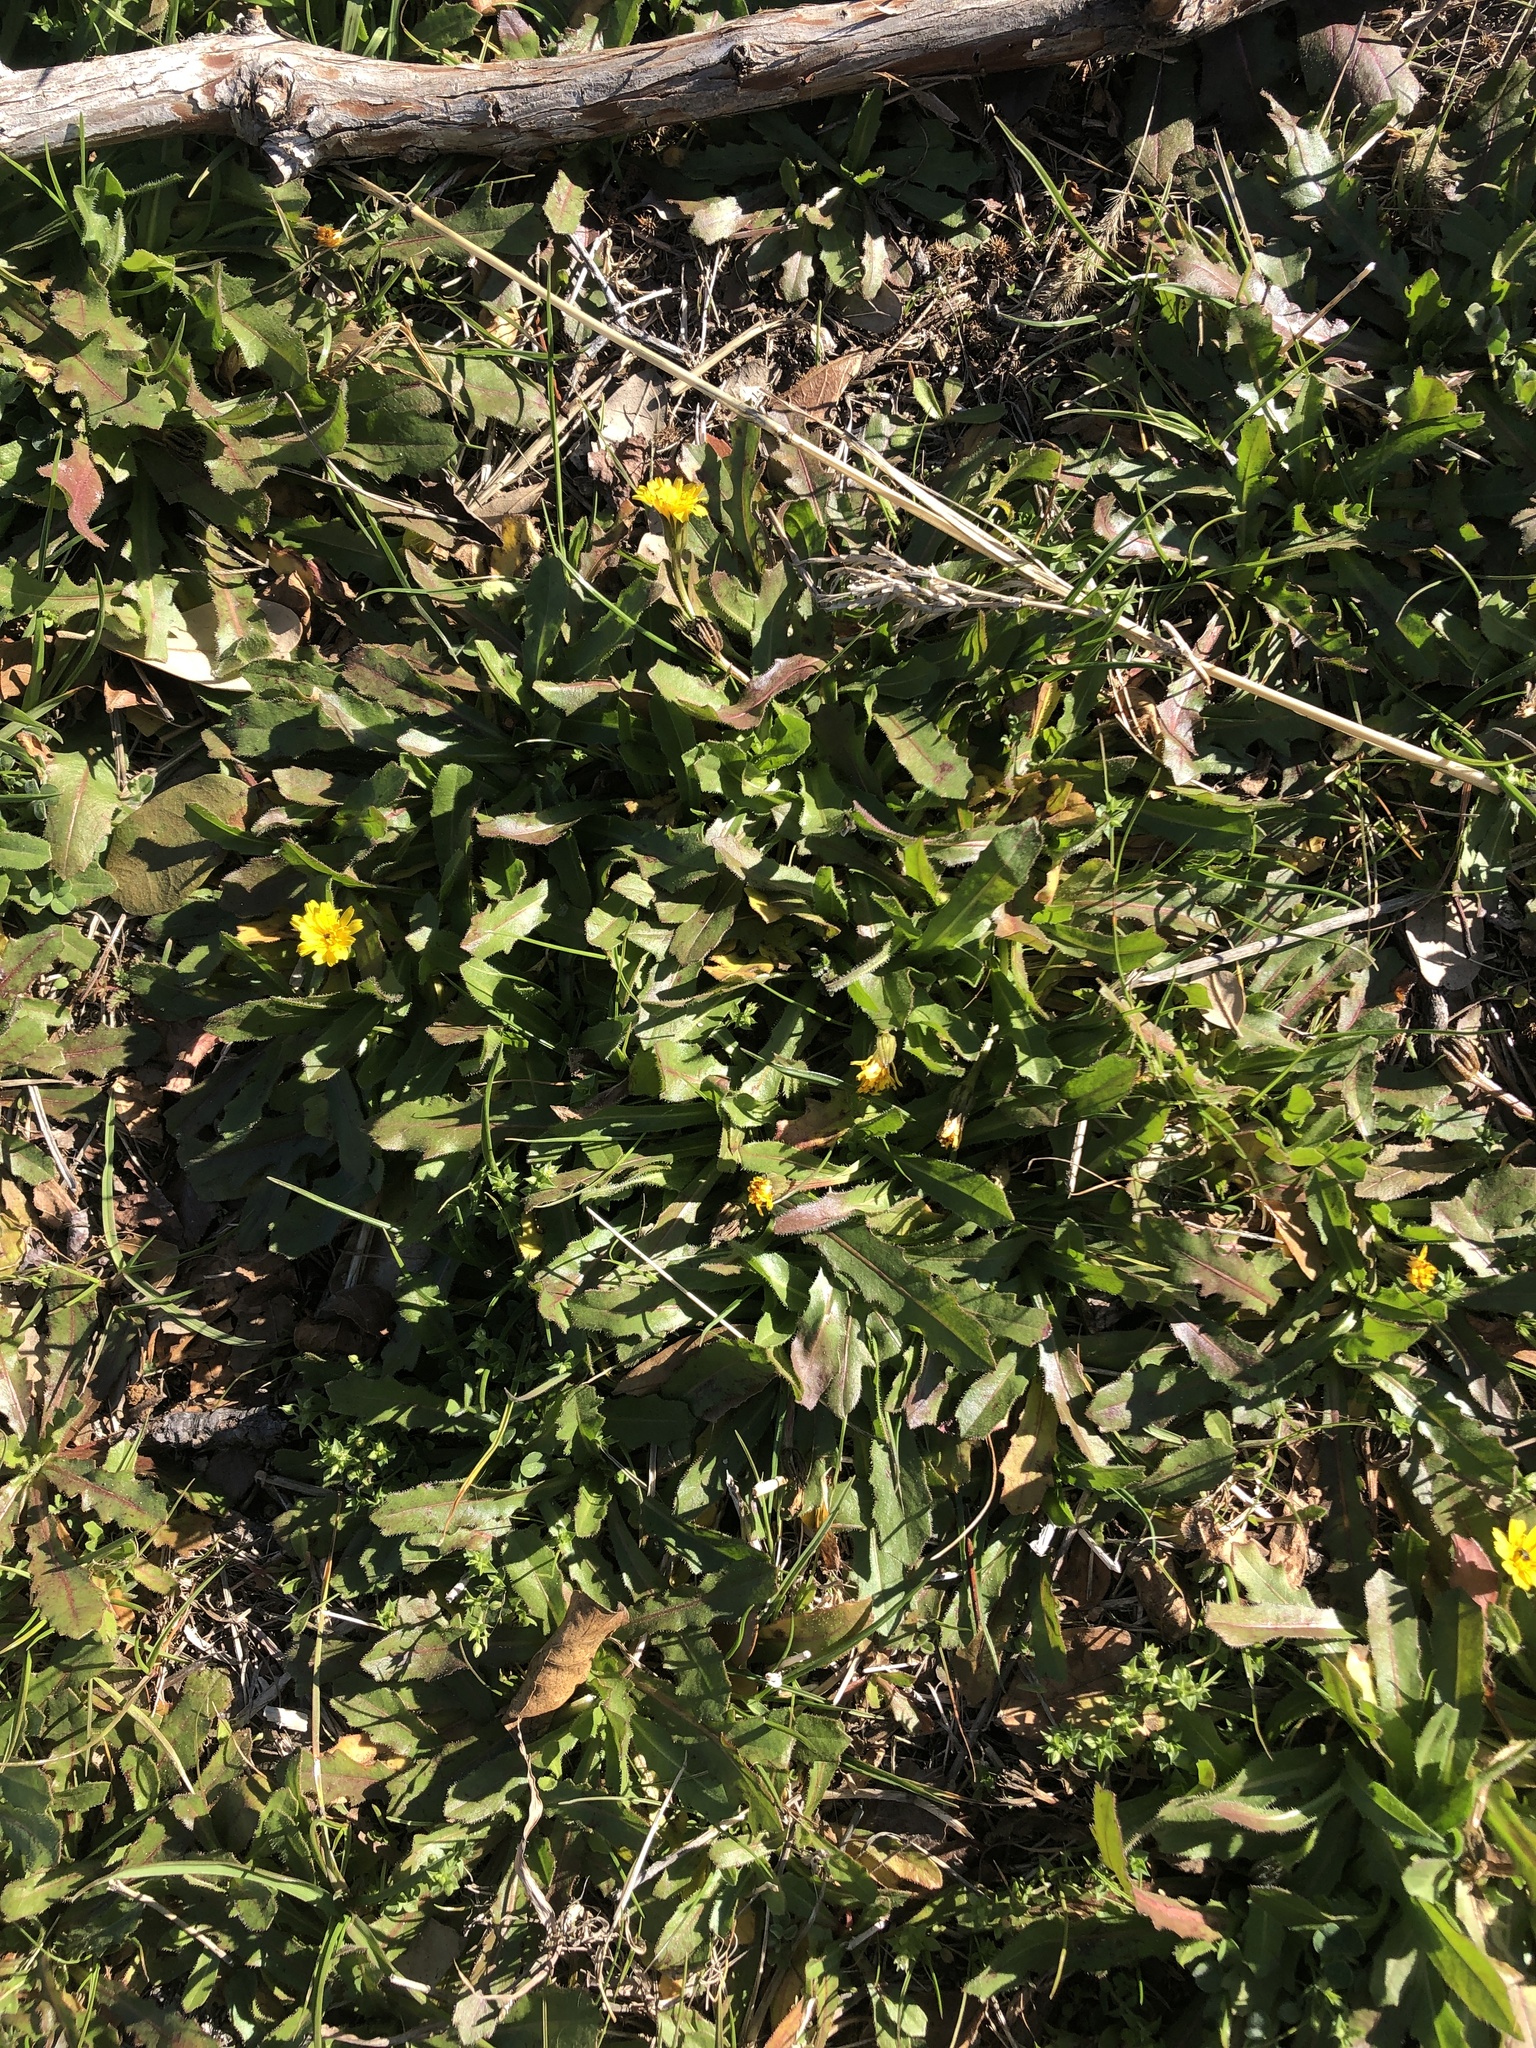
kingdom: Plantae
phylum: Tracheophyta
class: Magnoliopsida
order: Asterales
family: Asteraceae
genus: Hedypnois
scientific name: Hedypnois rhagadioloides
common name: Cretan weed
